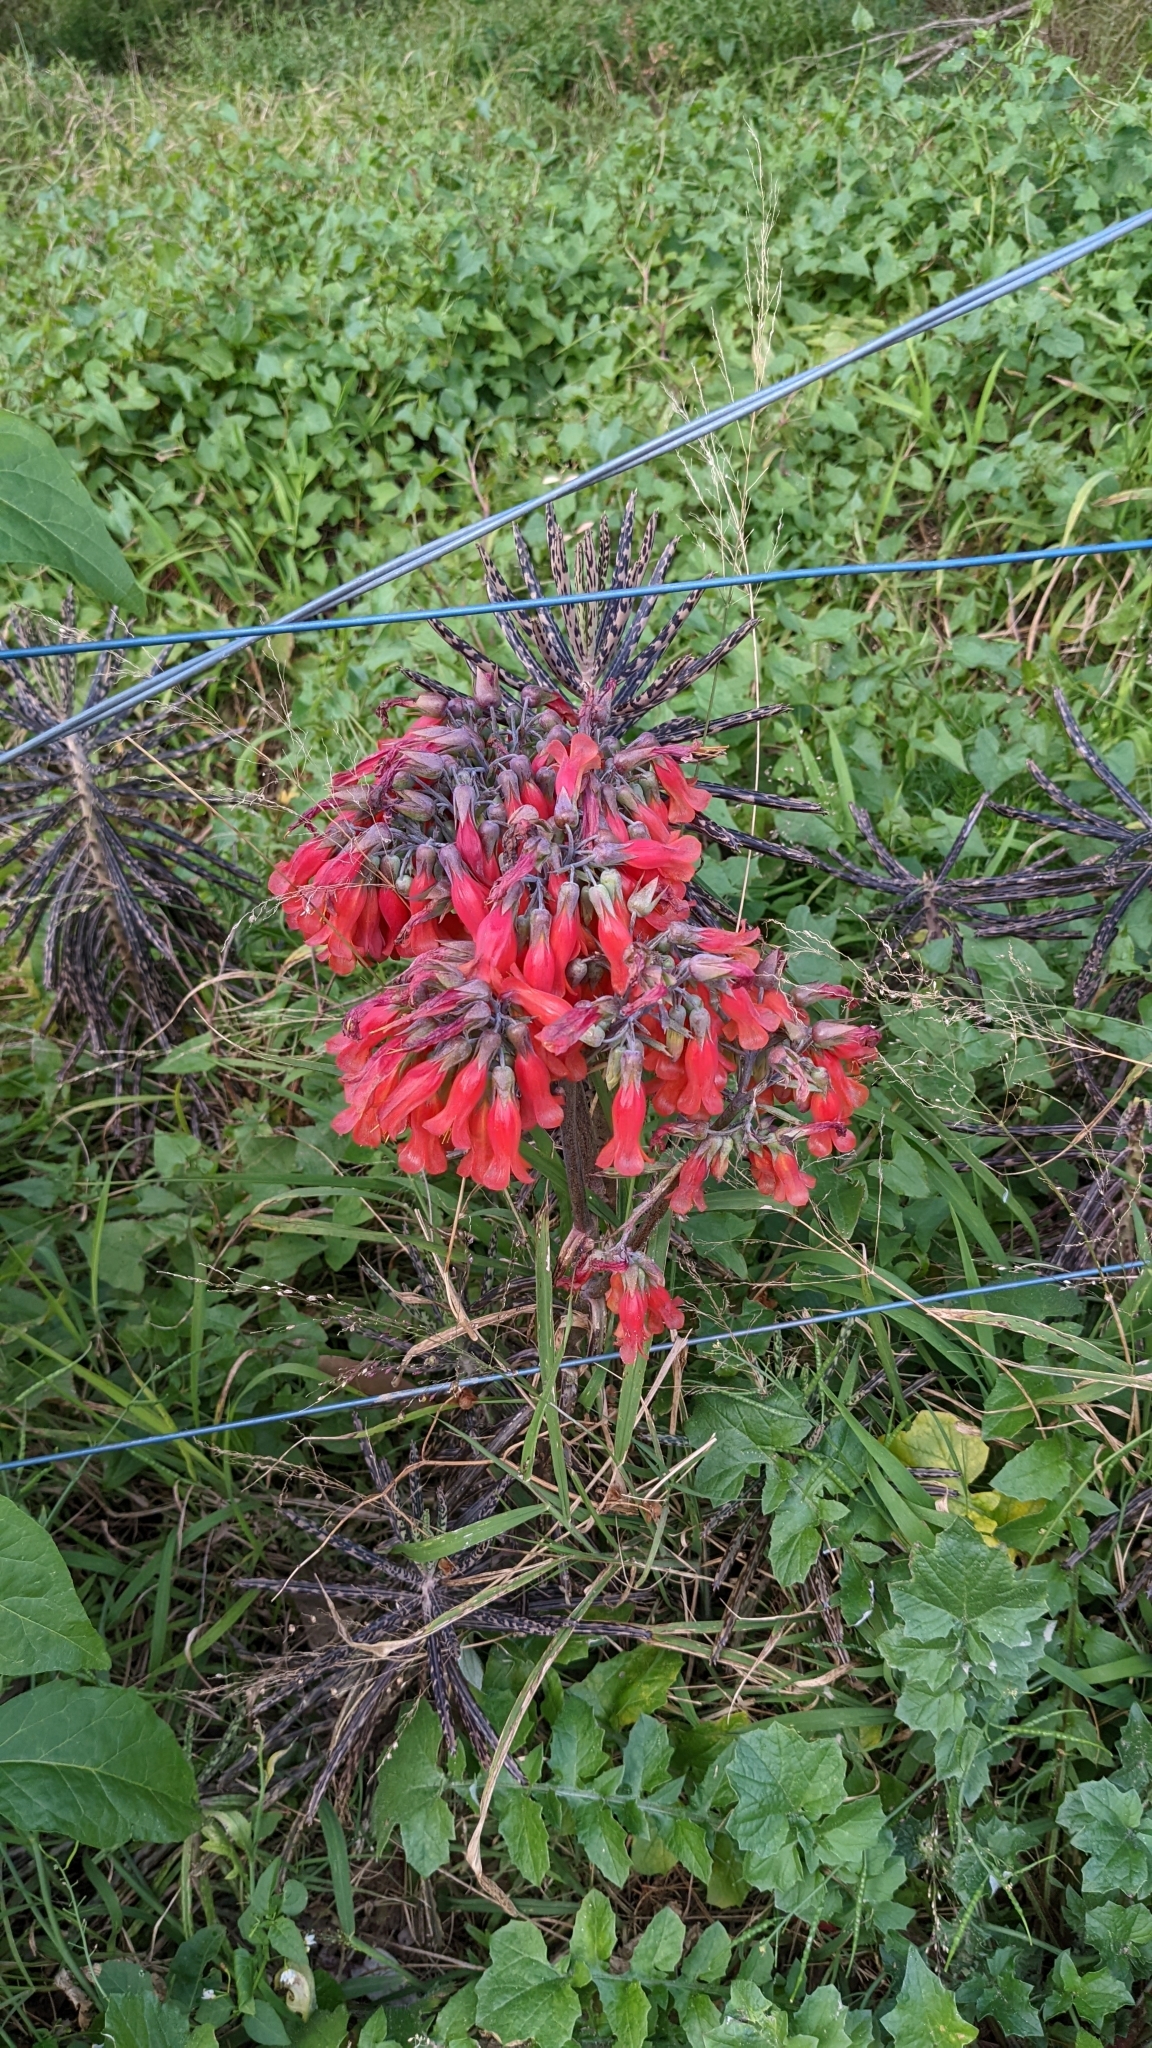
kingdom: Plantae
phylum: Tracheophyta
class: Magnoliopsida
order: Saxifragales
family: Crassulaceae
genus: Kalanchoe
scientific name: Kalanchoe delagoensis
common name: Chandelier plant
